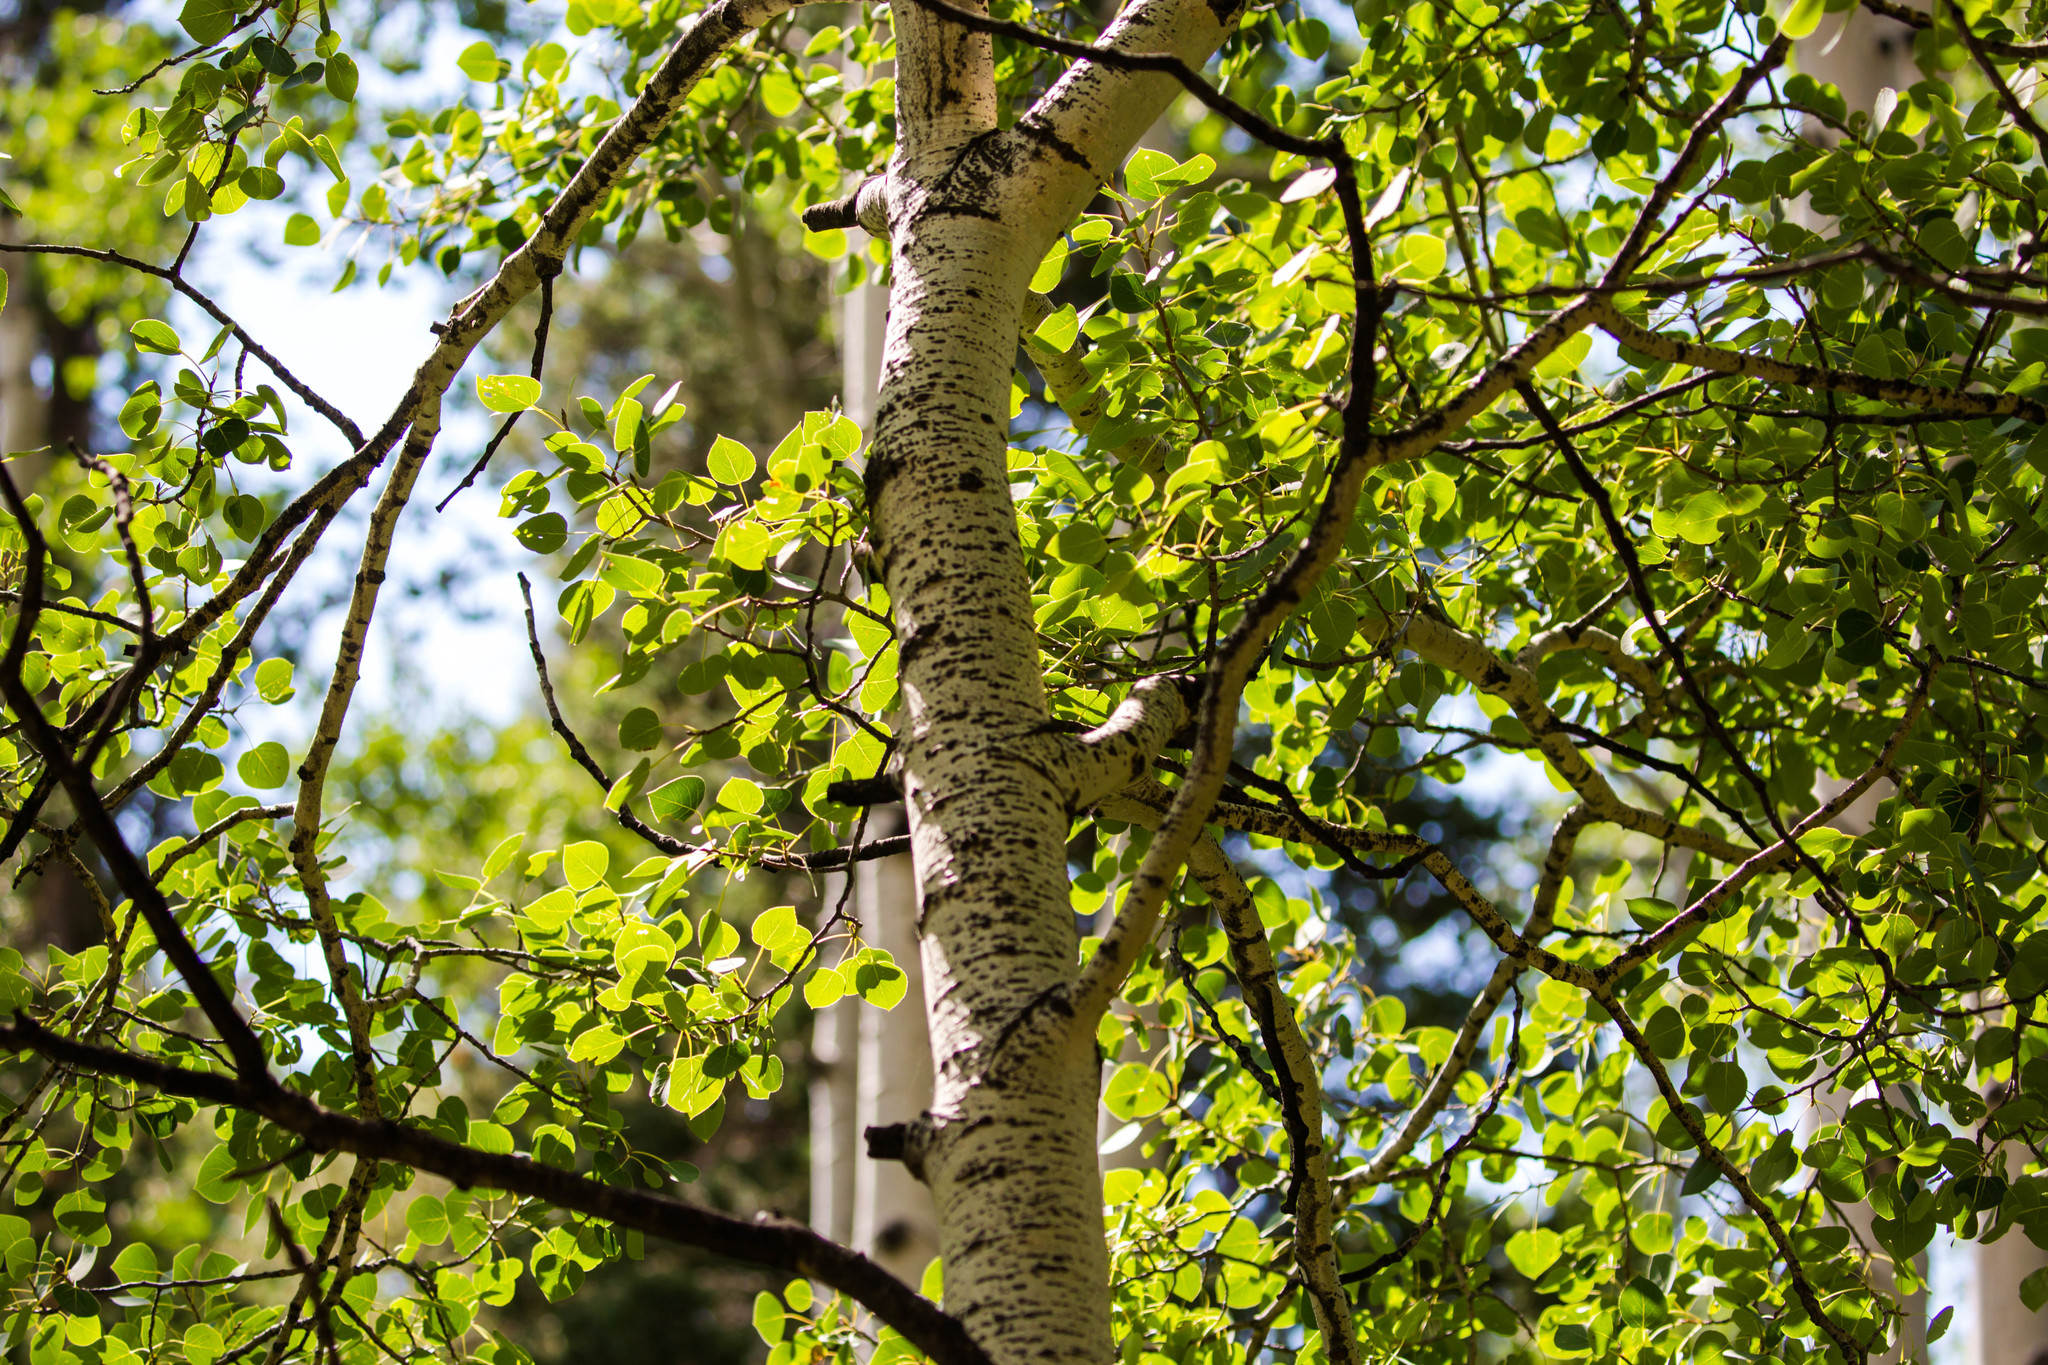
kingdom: Plantae
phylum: Tracheophyta
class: Magnoliopsida
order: Malpighiales
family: Salicaceae
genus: Populus
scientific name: Populus tremuloides
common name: Quaking aspen
